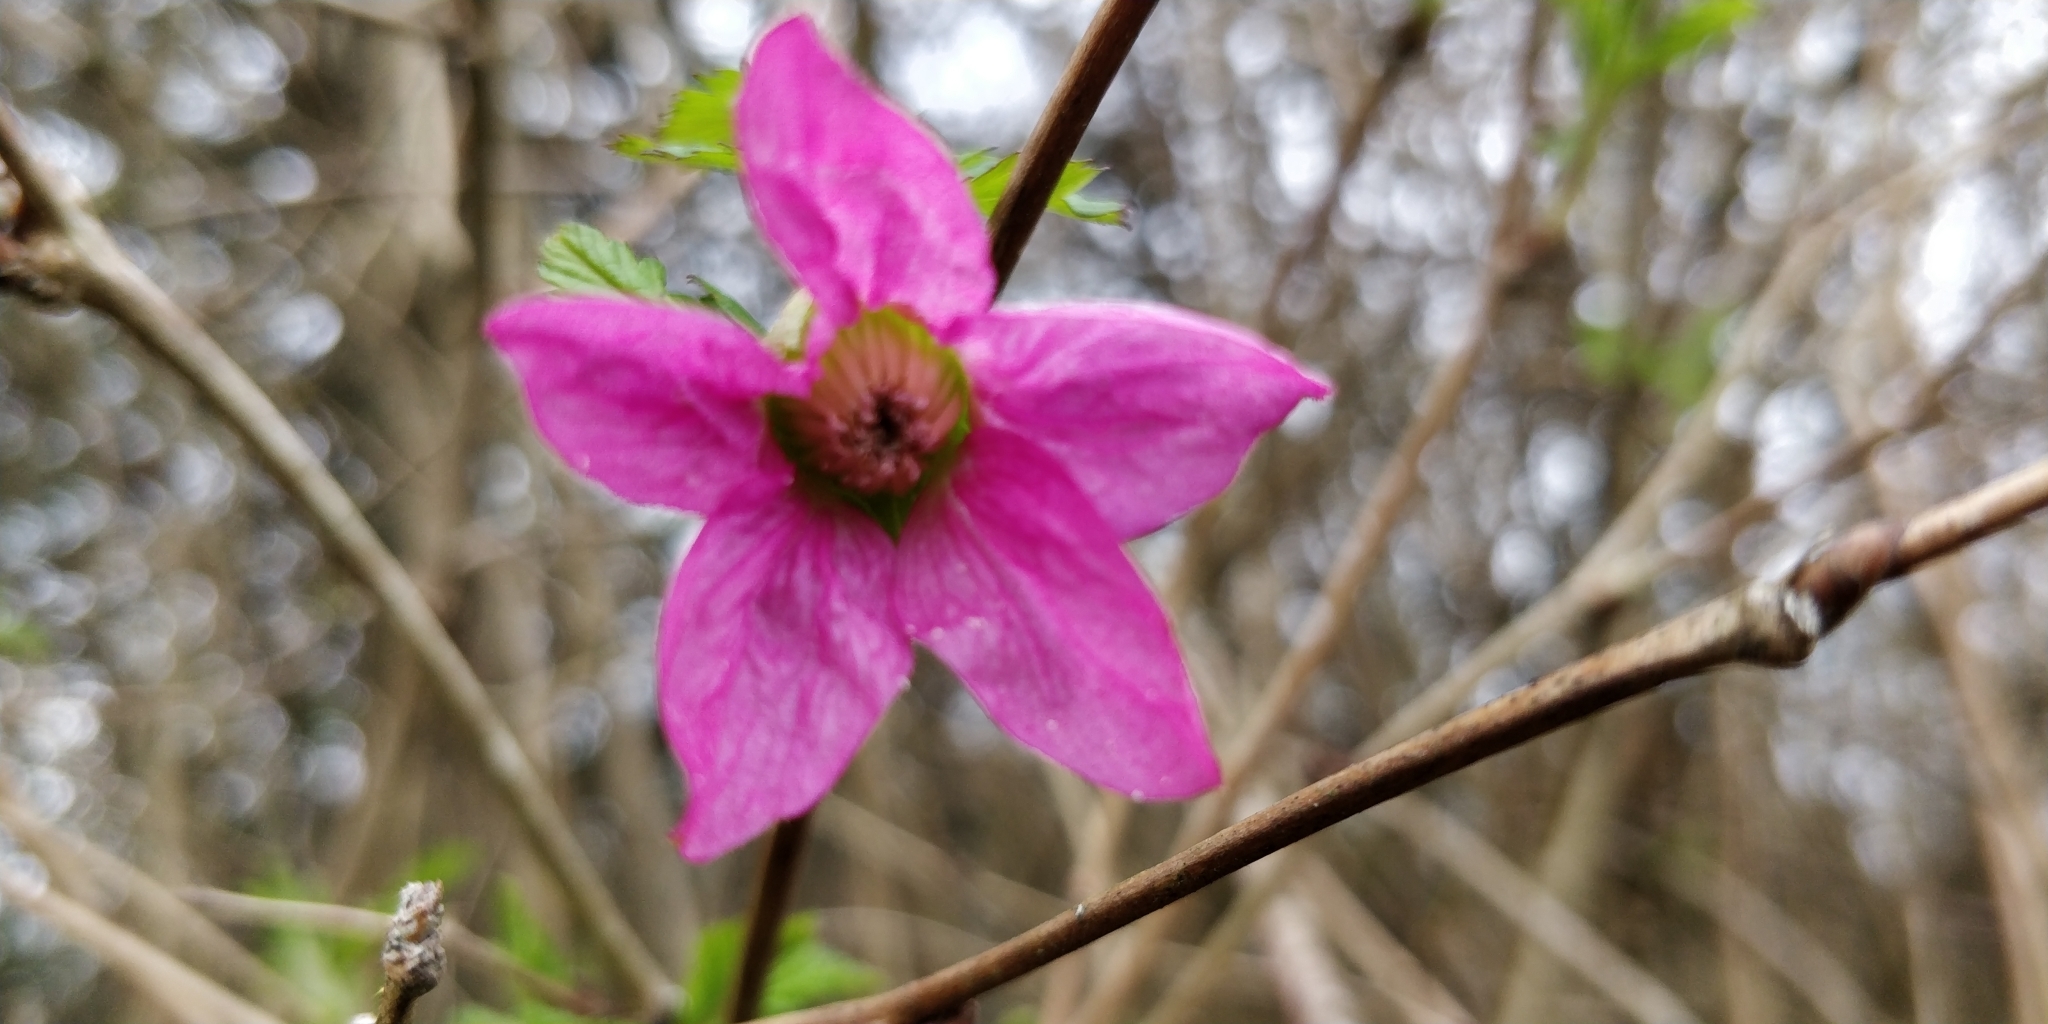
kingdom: Plantae
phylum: Tracheophyta
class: Magnoliopsida
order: Rosales
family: Rosaceae
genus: Rubus
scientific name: Rubus spectabilis
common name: Salmonberry
